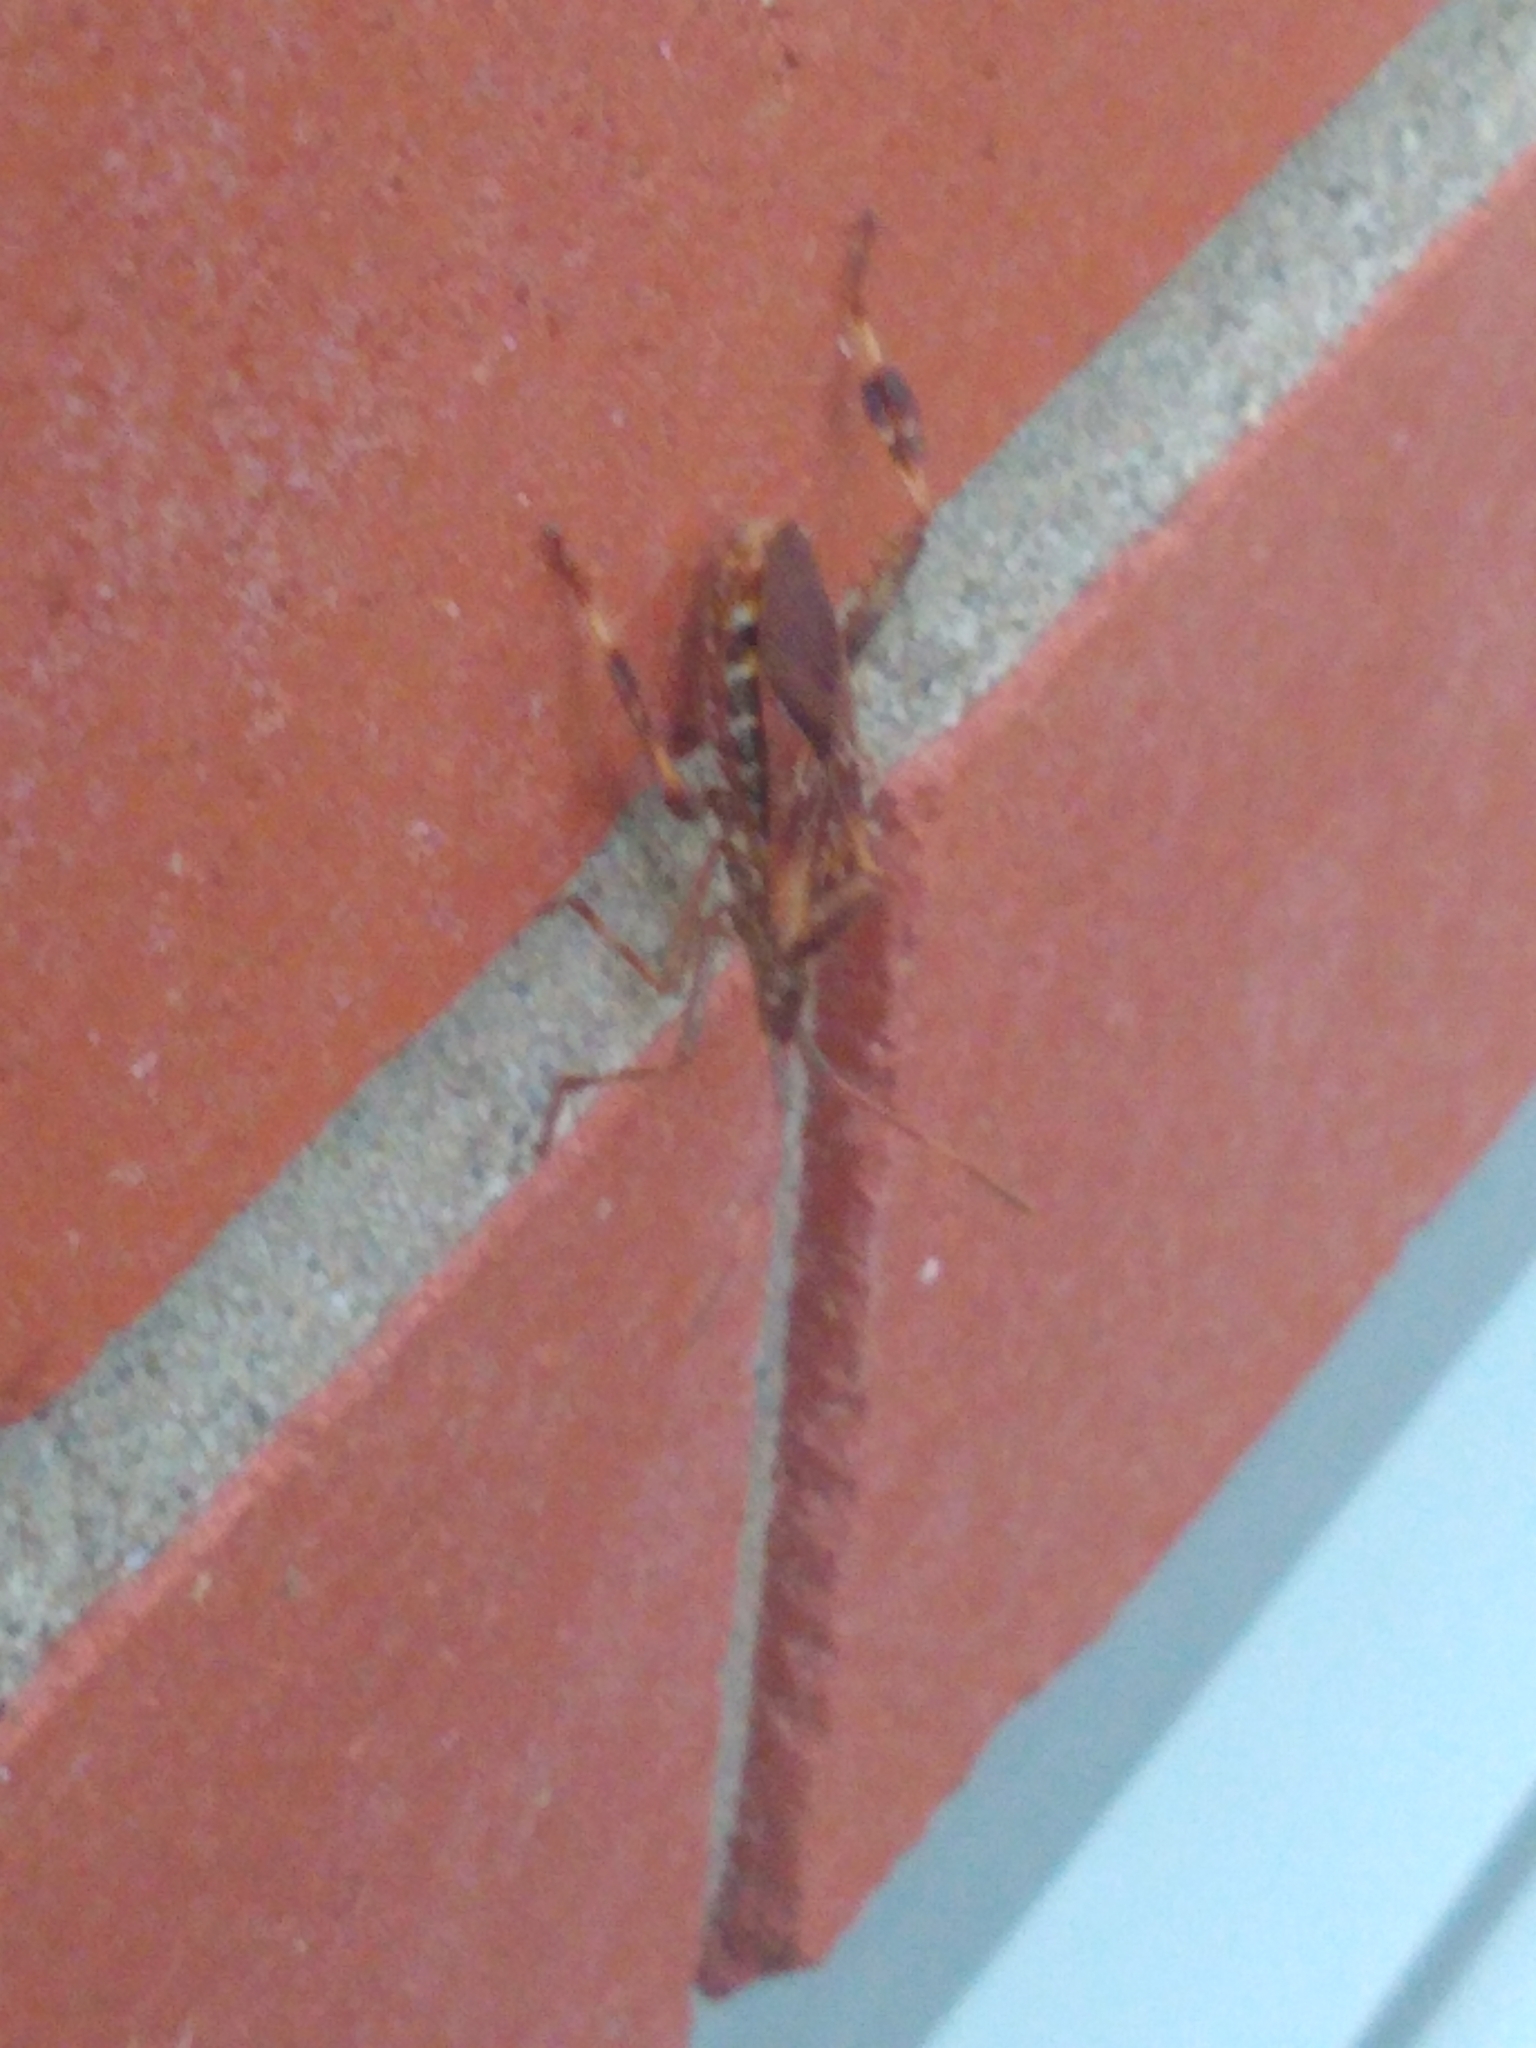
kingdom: Animalia
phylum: Arthropoda
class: Insecta
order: Hemiptera
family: Coreidae
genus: Leptoglossus
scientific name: Leptoglossus occidentalis
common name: Western conifer-seed bug
